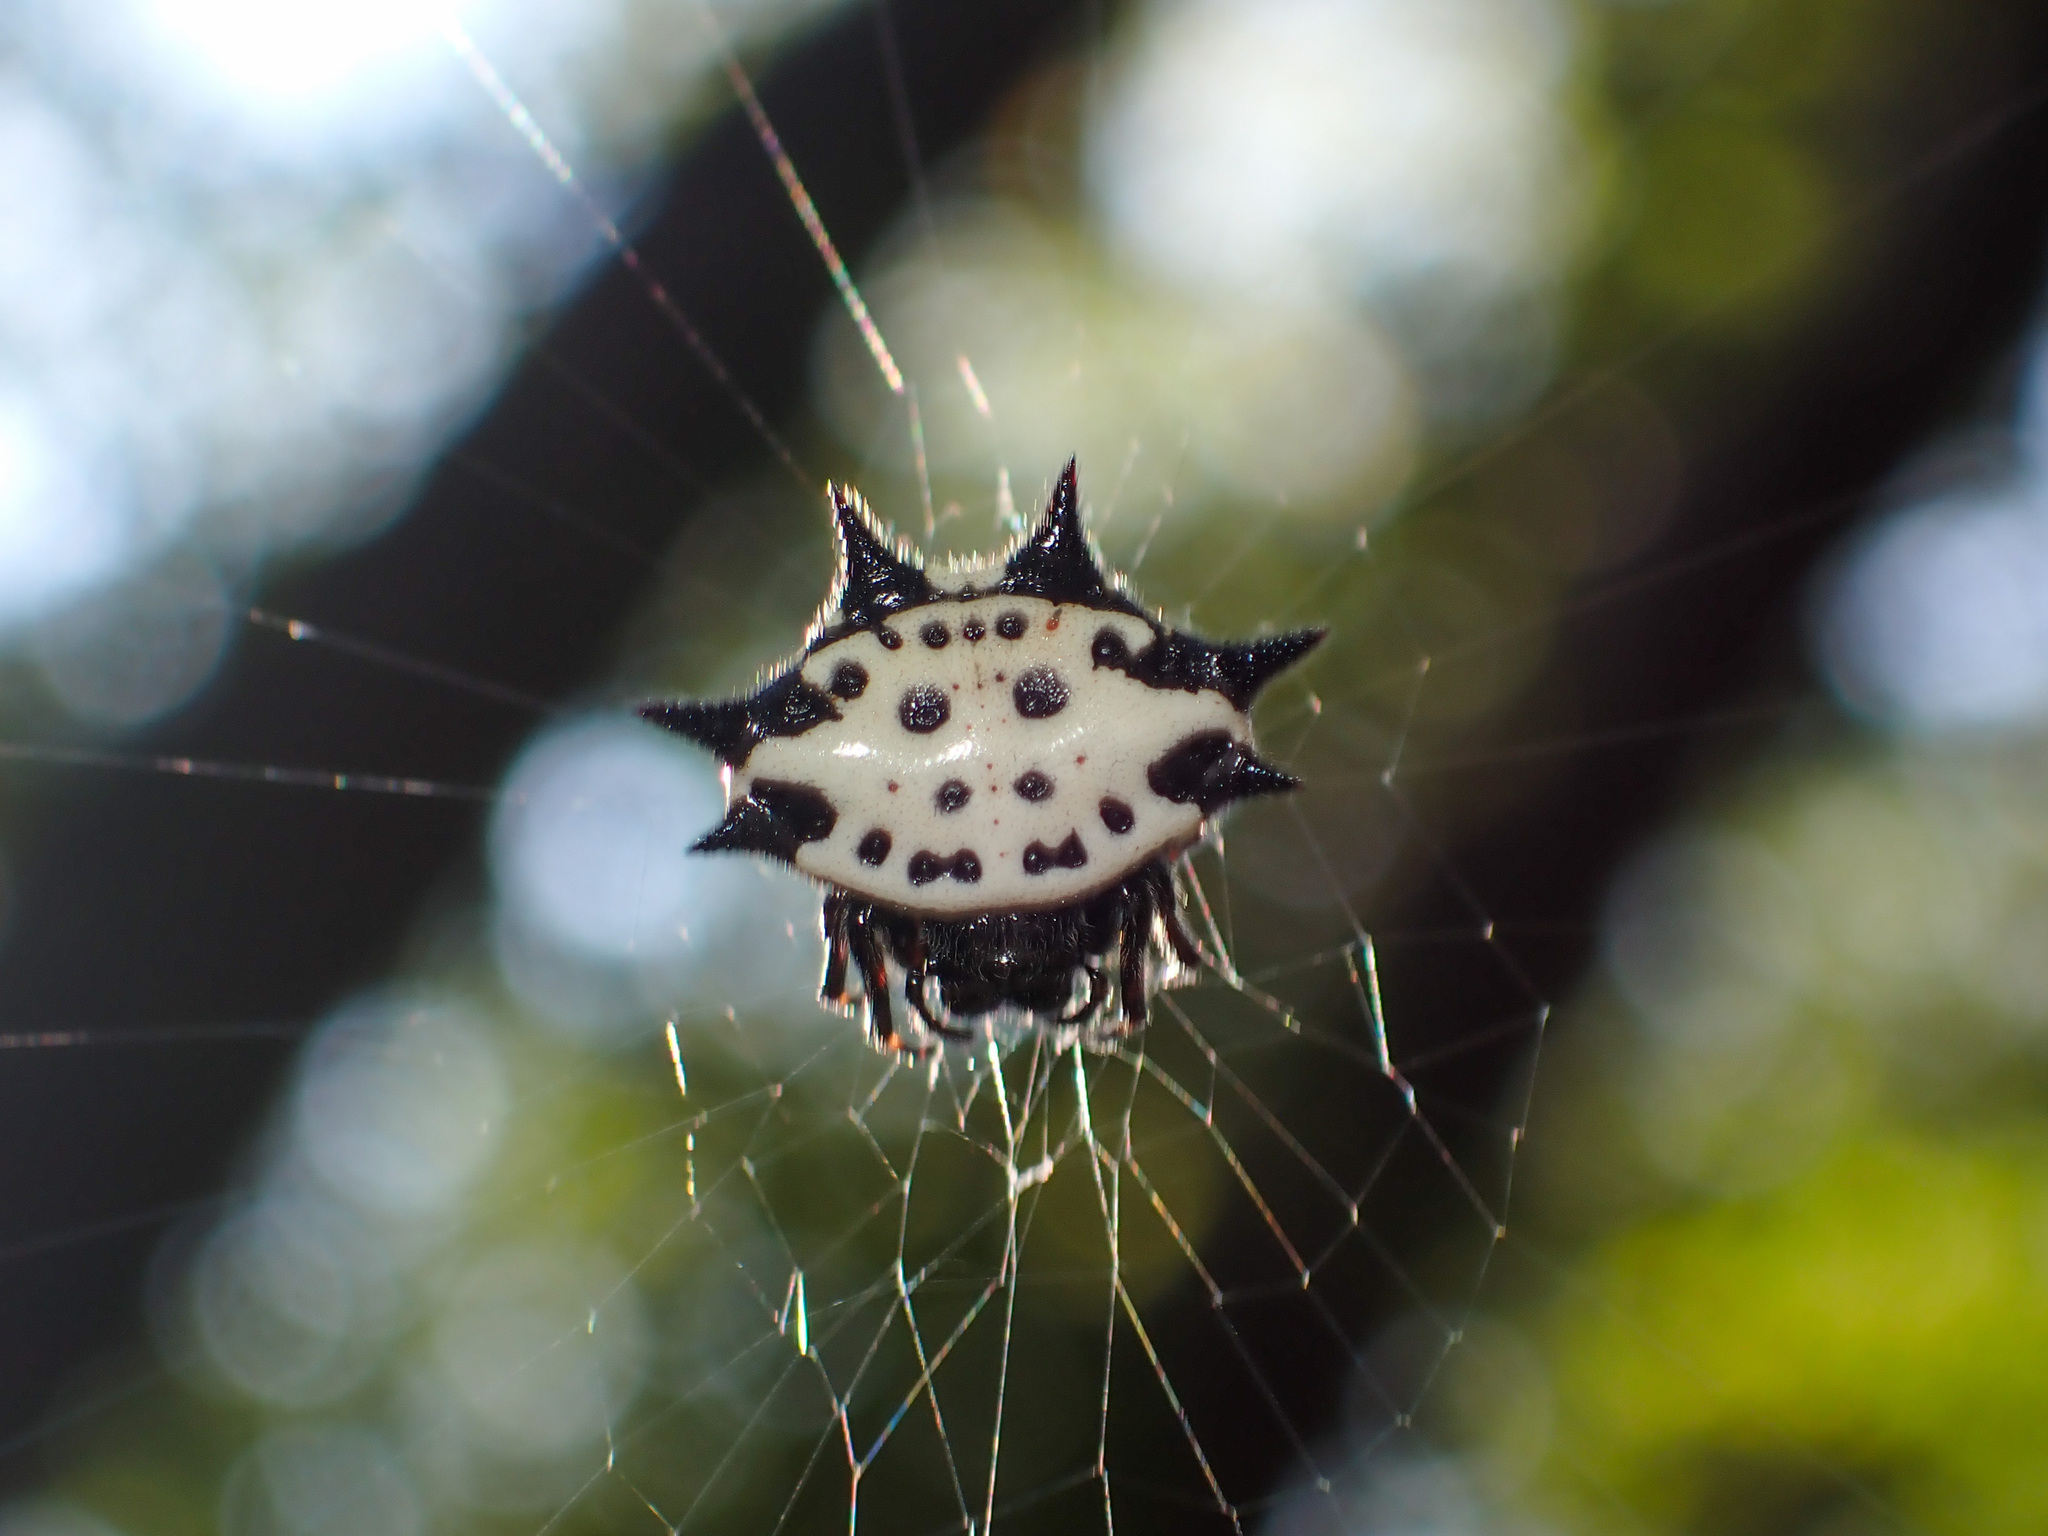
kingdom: Animalia
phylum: Arthropoda
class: Arachnida
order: Araneae
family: Araneidae
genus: Gasteracantha
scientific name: Gasteracantha cancriformis
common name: Orb weavers
